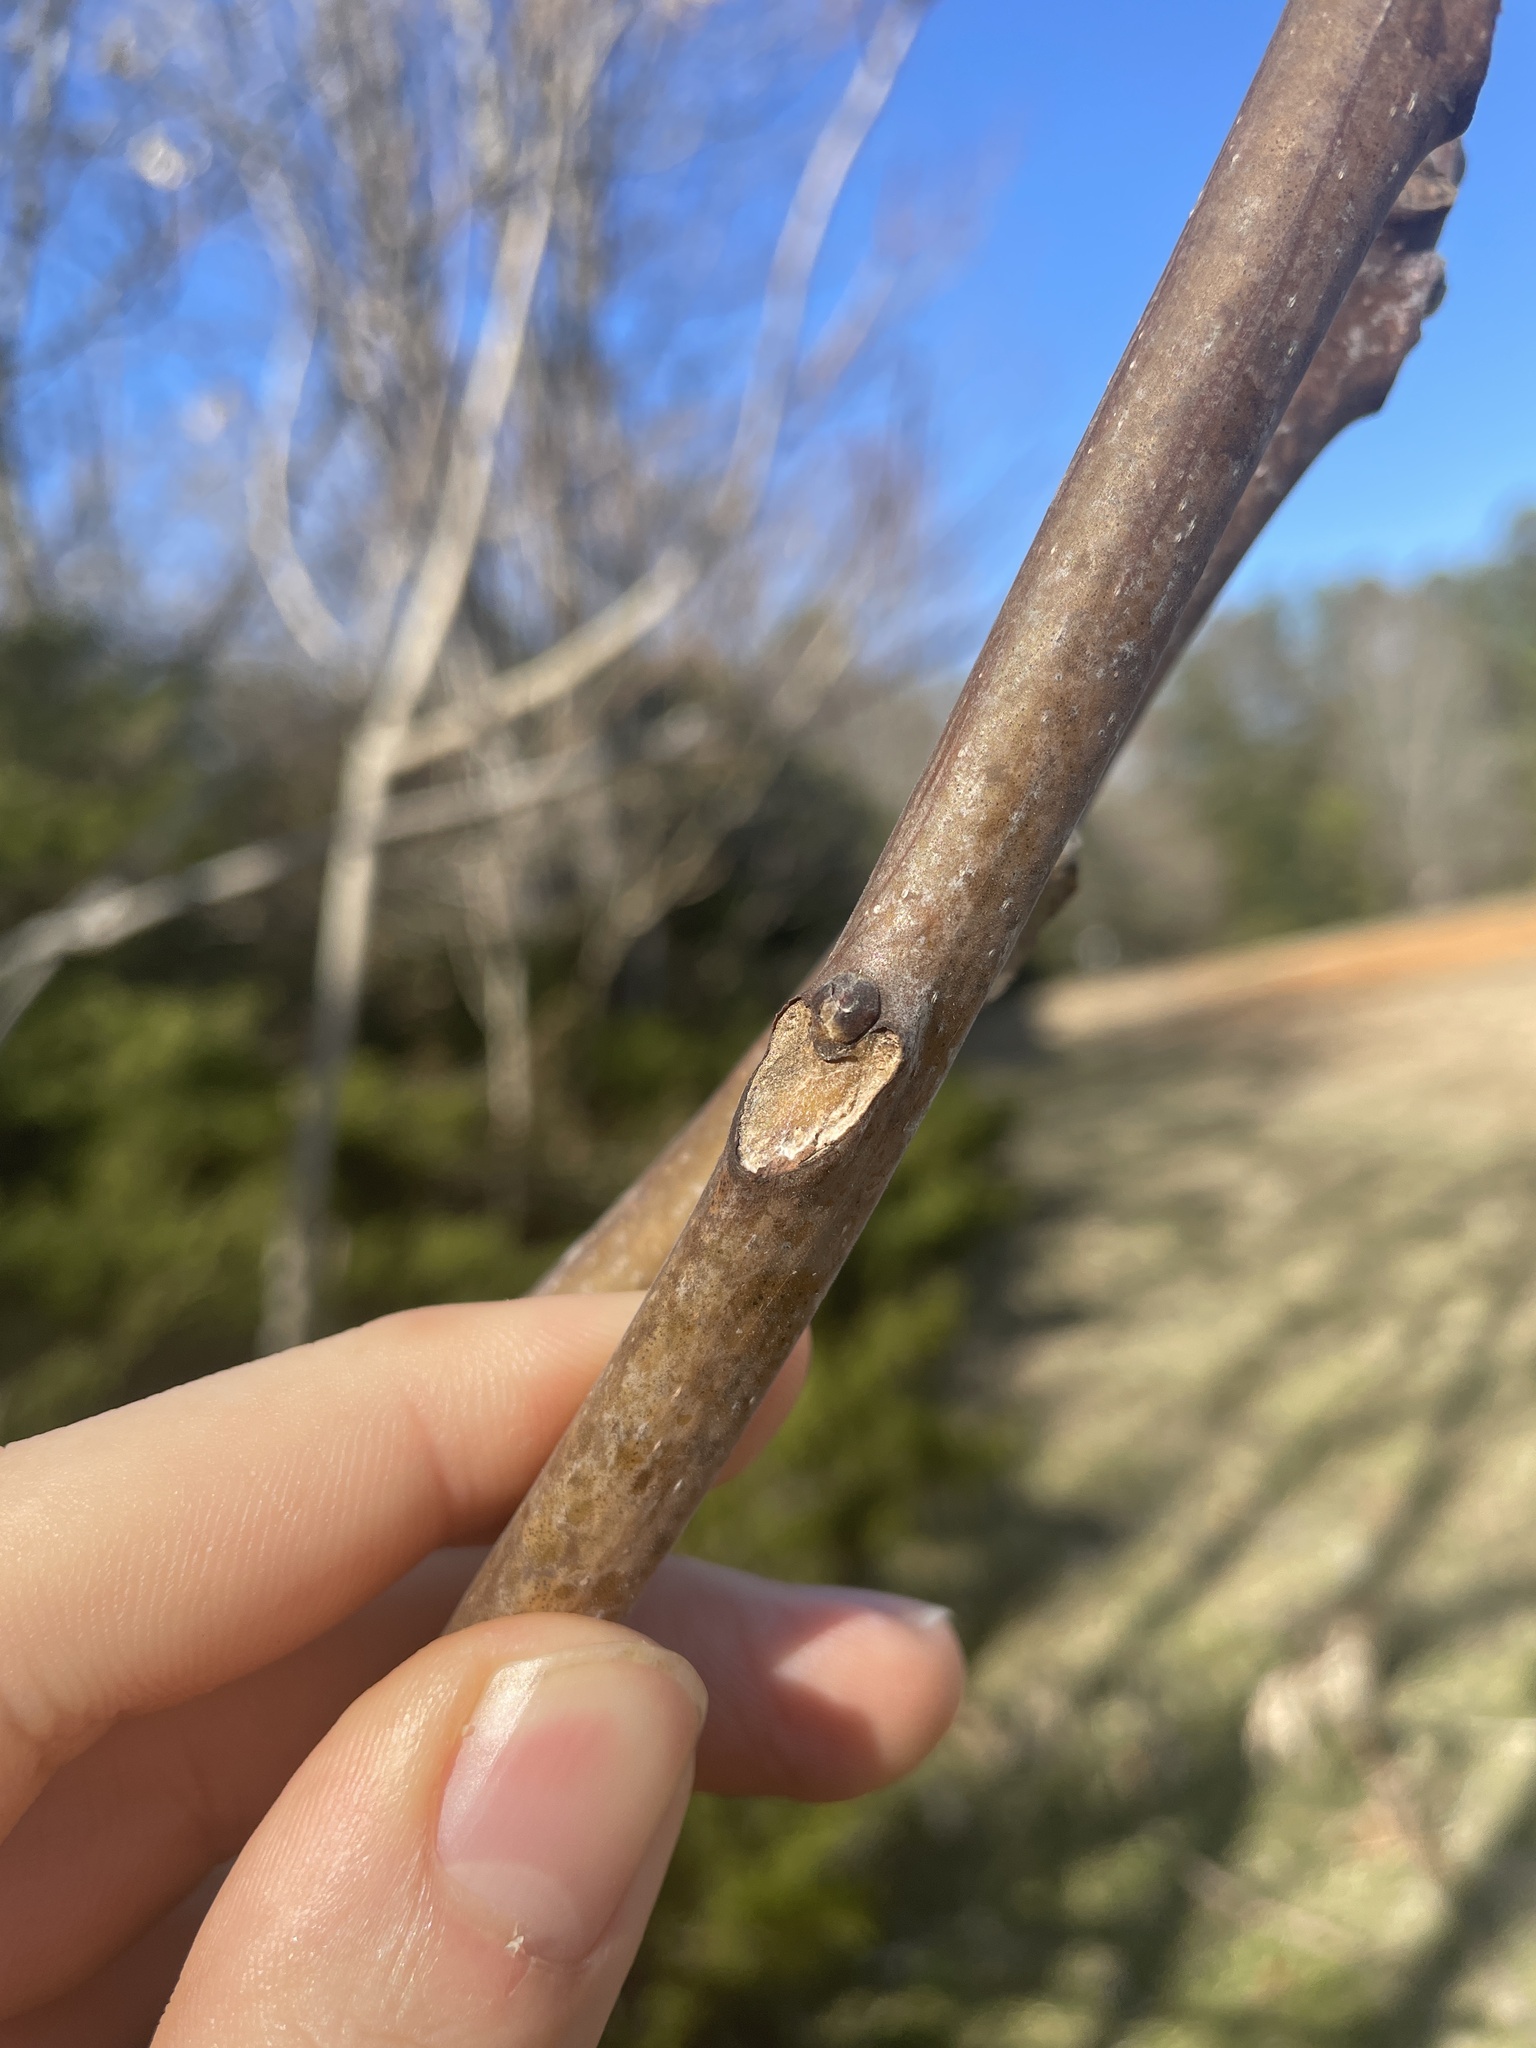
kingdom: Plantae
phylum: Tracheophyta
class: Magnoliopsida
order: Sapindales
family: Simaroubaceae
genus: Ailanthus
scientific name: Ailanthus altissima
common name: Tree-of-heaven
